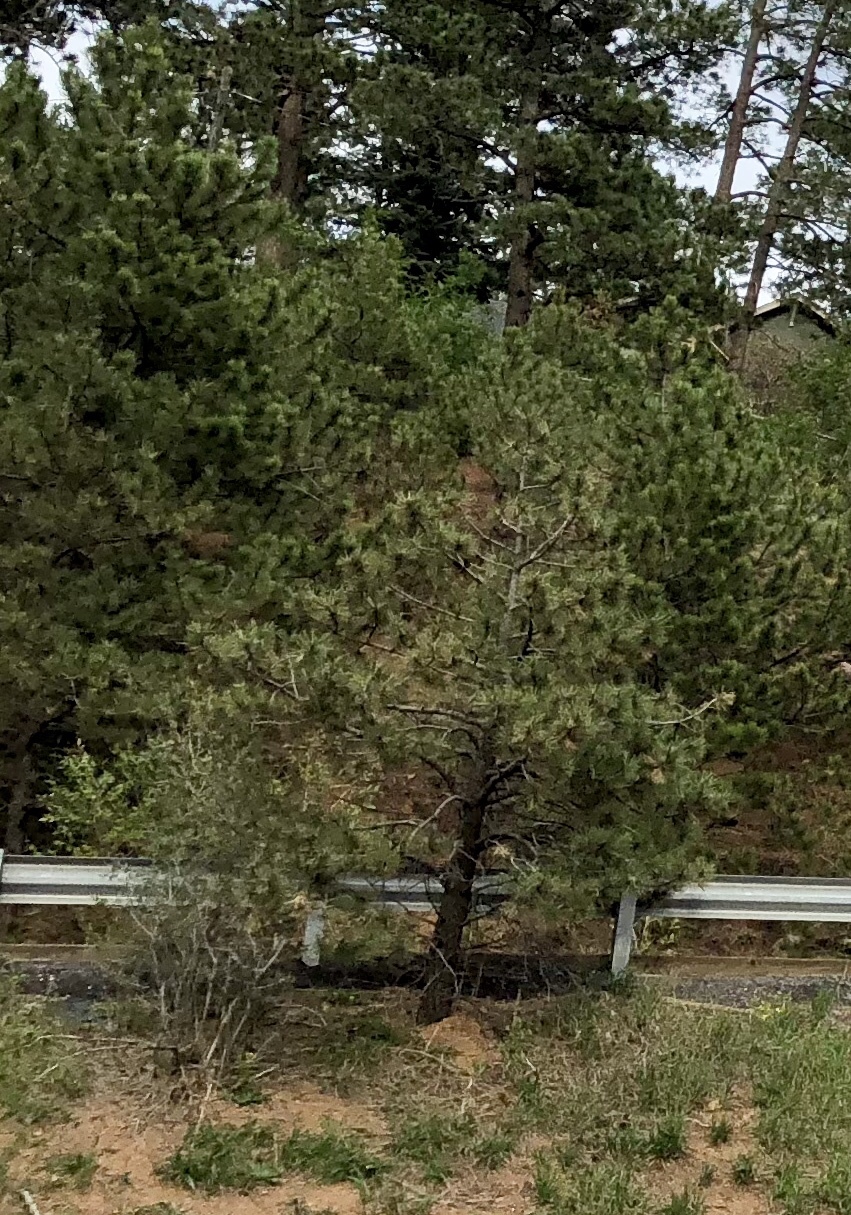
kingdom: Plantae
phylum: Tracheophyta
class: Pinopsida
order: Pinales
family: Pinaceae
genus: Pinus
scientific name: Pinus ponderosa
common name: Western yellow-pine
